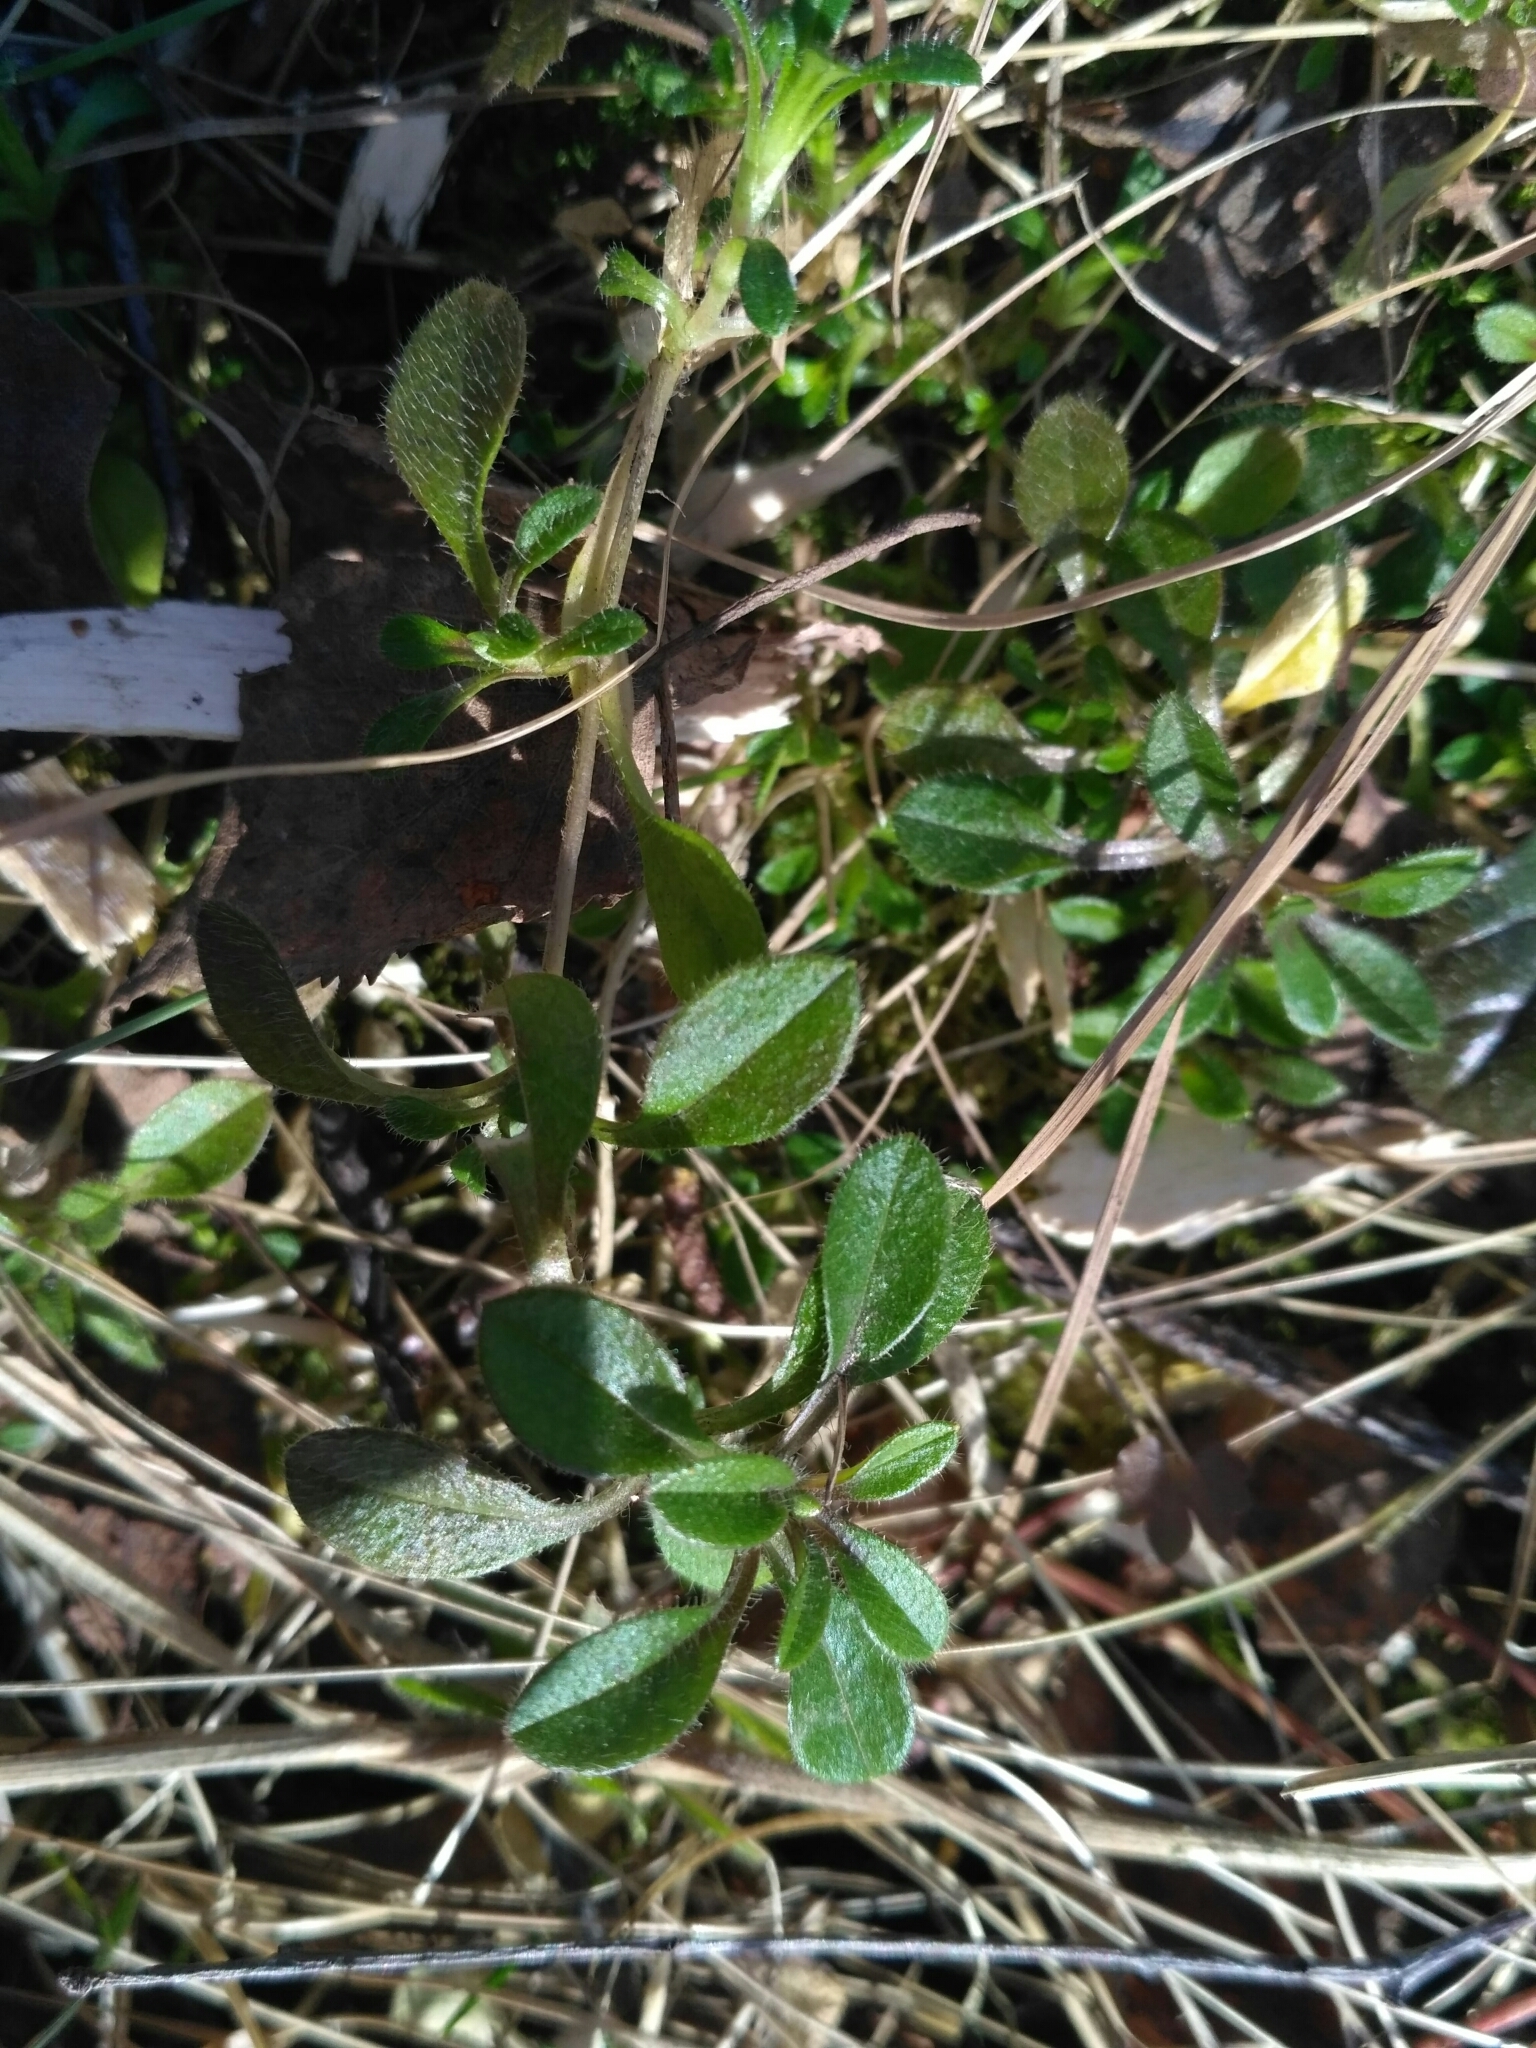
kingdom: Plantae
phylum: Tracheophyta
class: Magnoliopsida
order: Caryophyllales
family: Caryophyllaceae
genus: Cerastium
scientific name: Cerastium holosteoides
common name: Big chickweed
